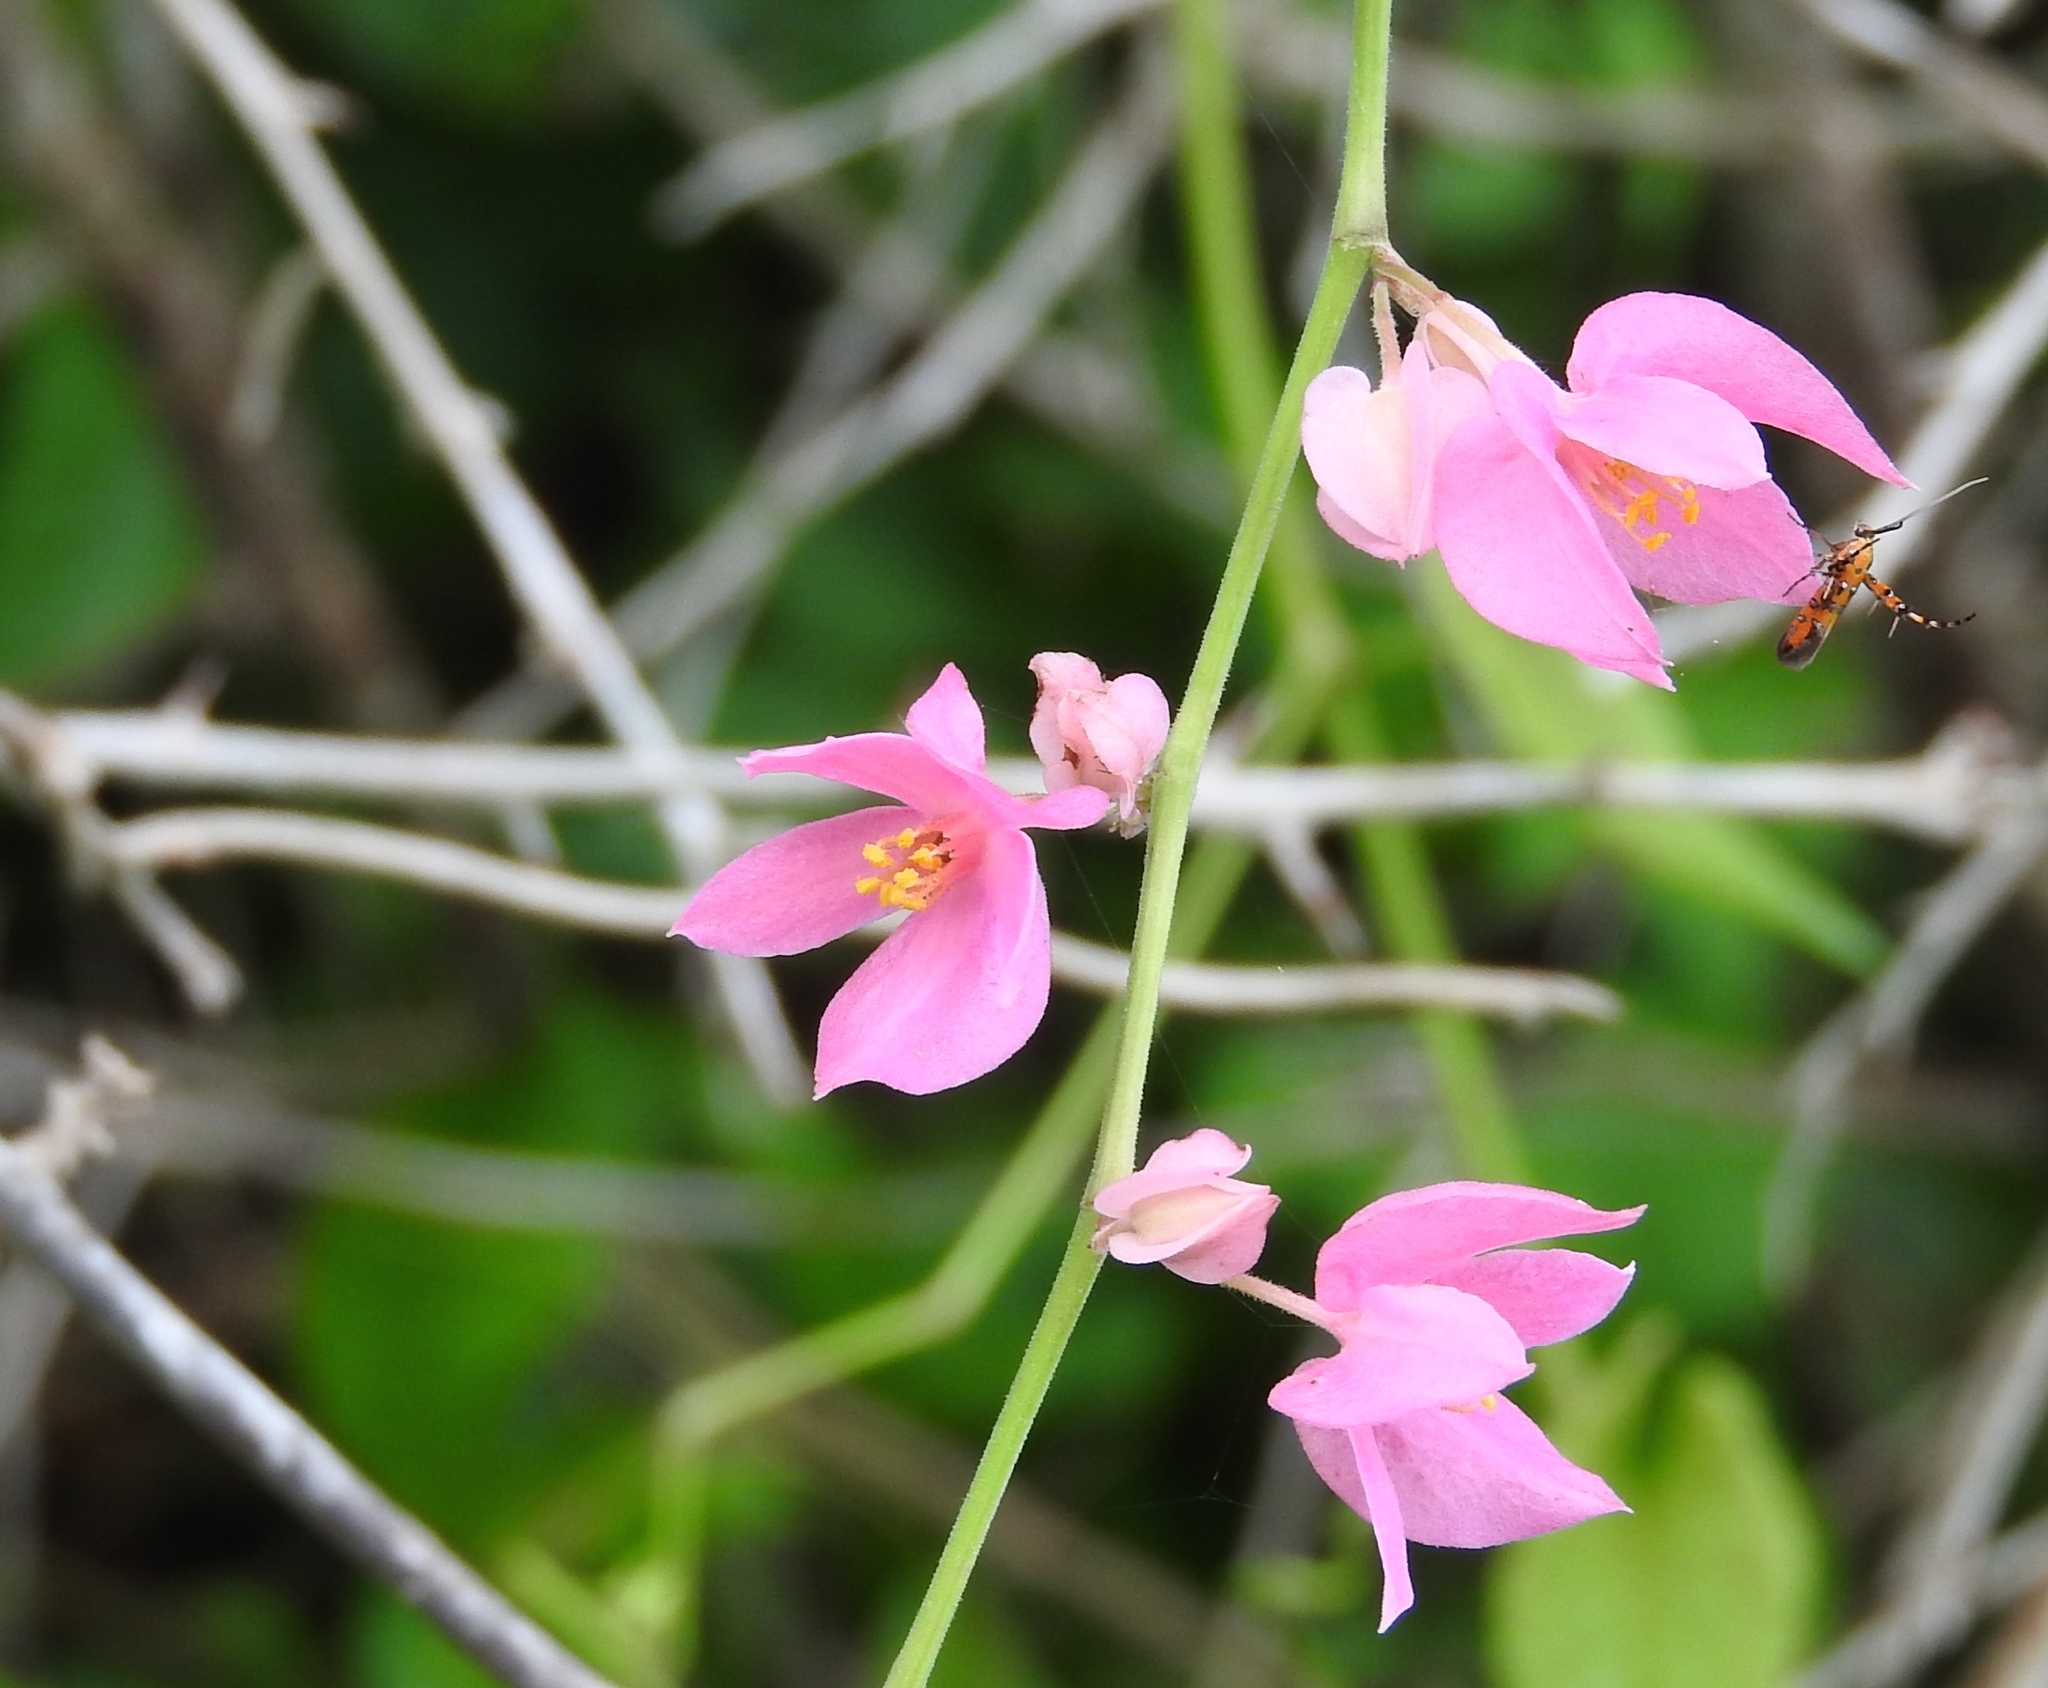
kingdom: Plantae
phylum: Tracheophyta
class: Magnoliopsida
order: Caryophyllales
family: Polygonaceae
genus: Antigonon
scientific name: Antigonon leptopus
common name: Coral vine
